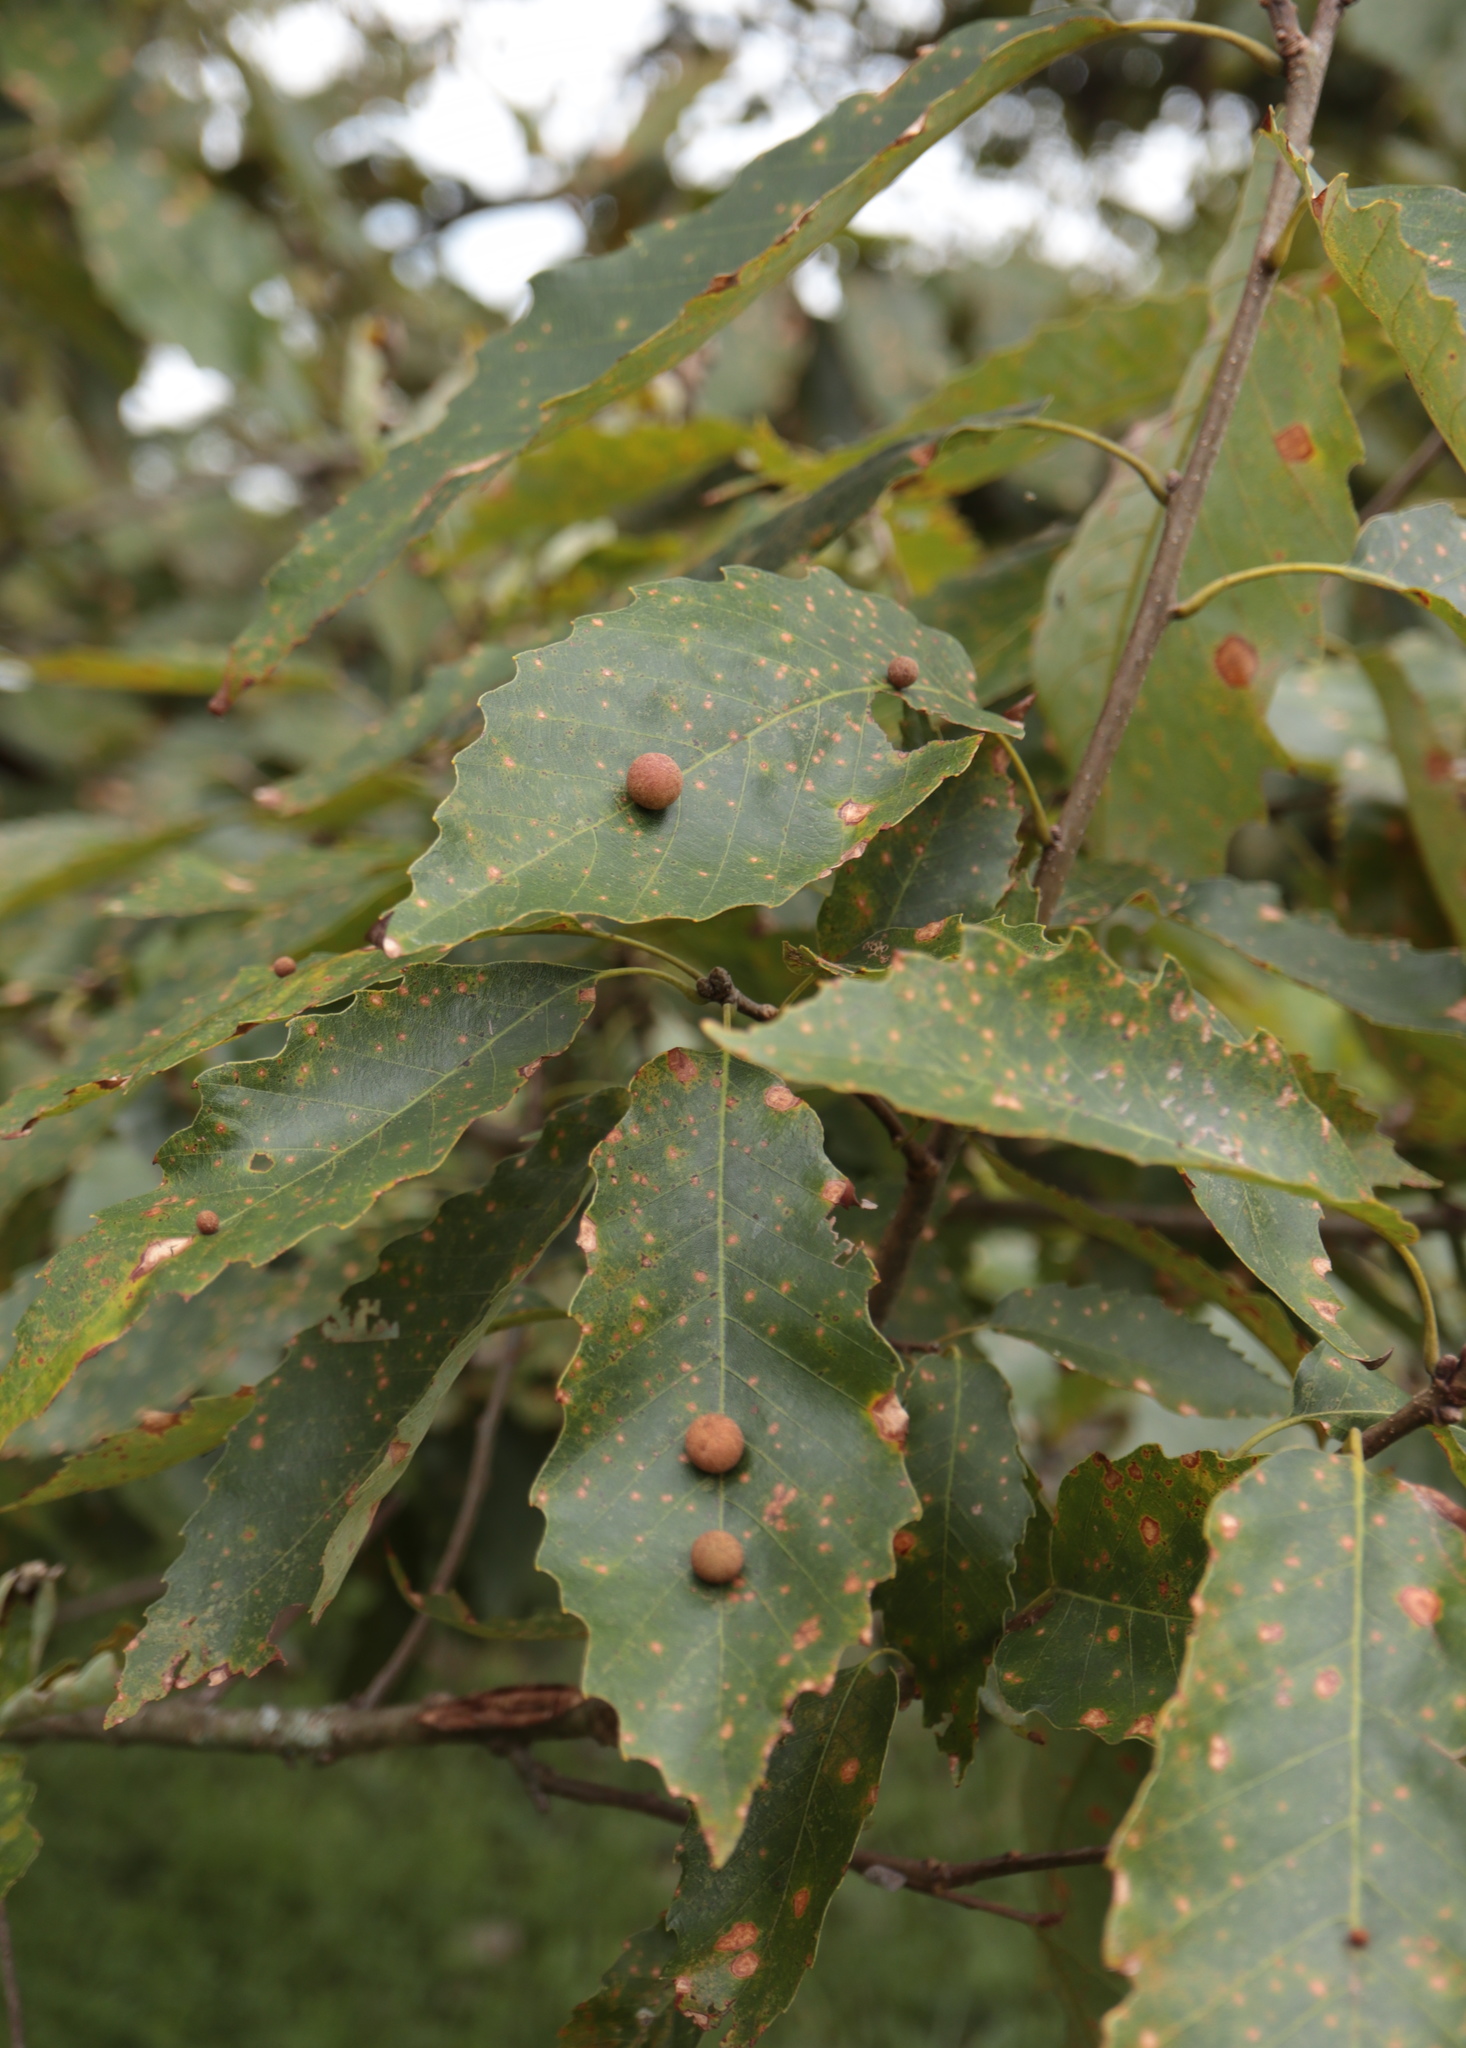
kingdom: Animalia
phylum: Arthropoda
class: Insecta
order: Hymenoptera
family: Cynipidae
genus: Philonix
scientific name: Philonix fulvicollis
